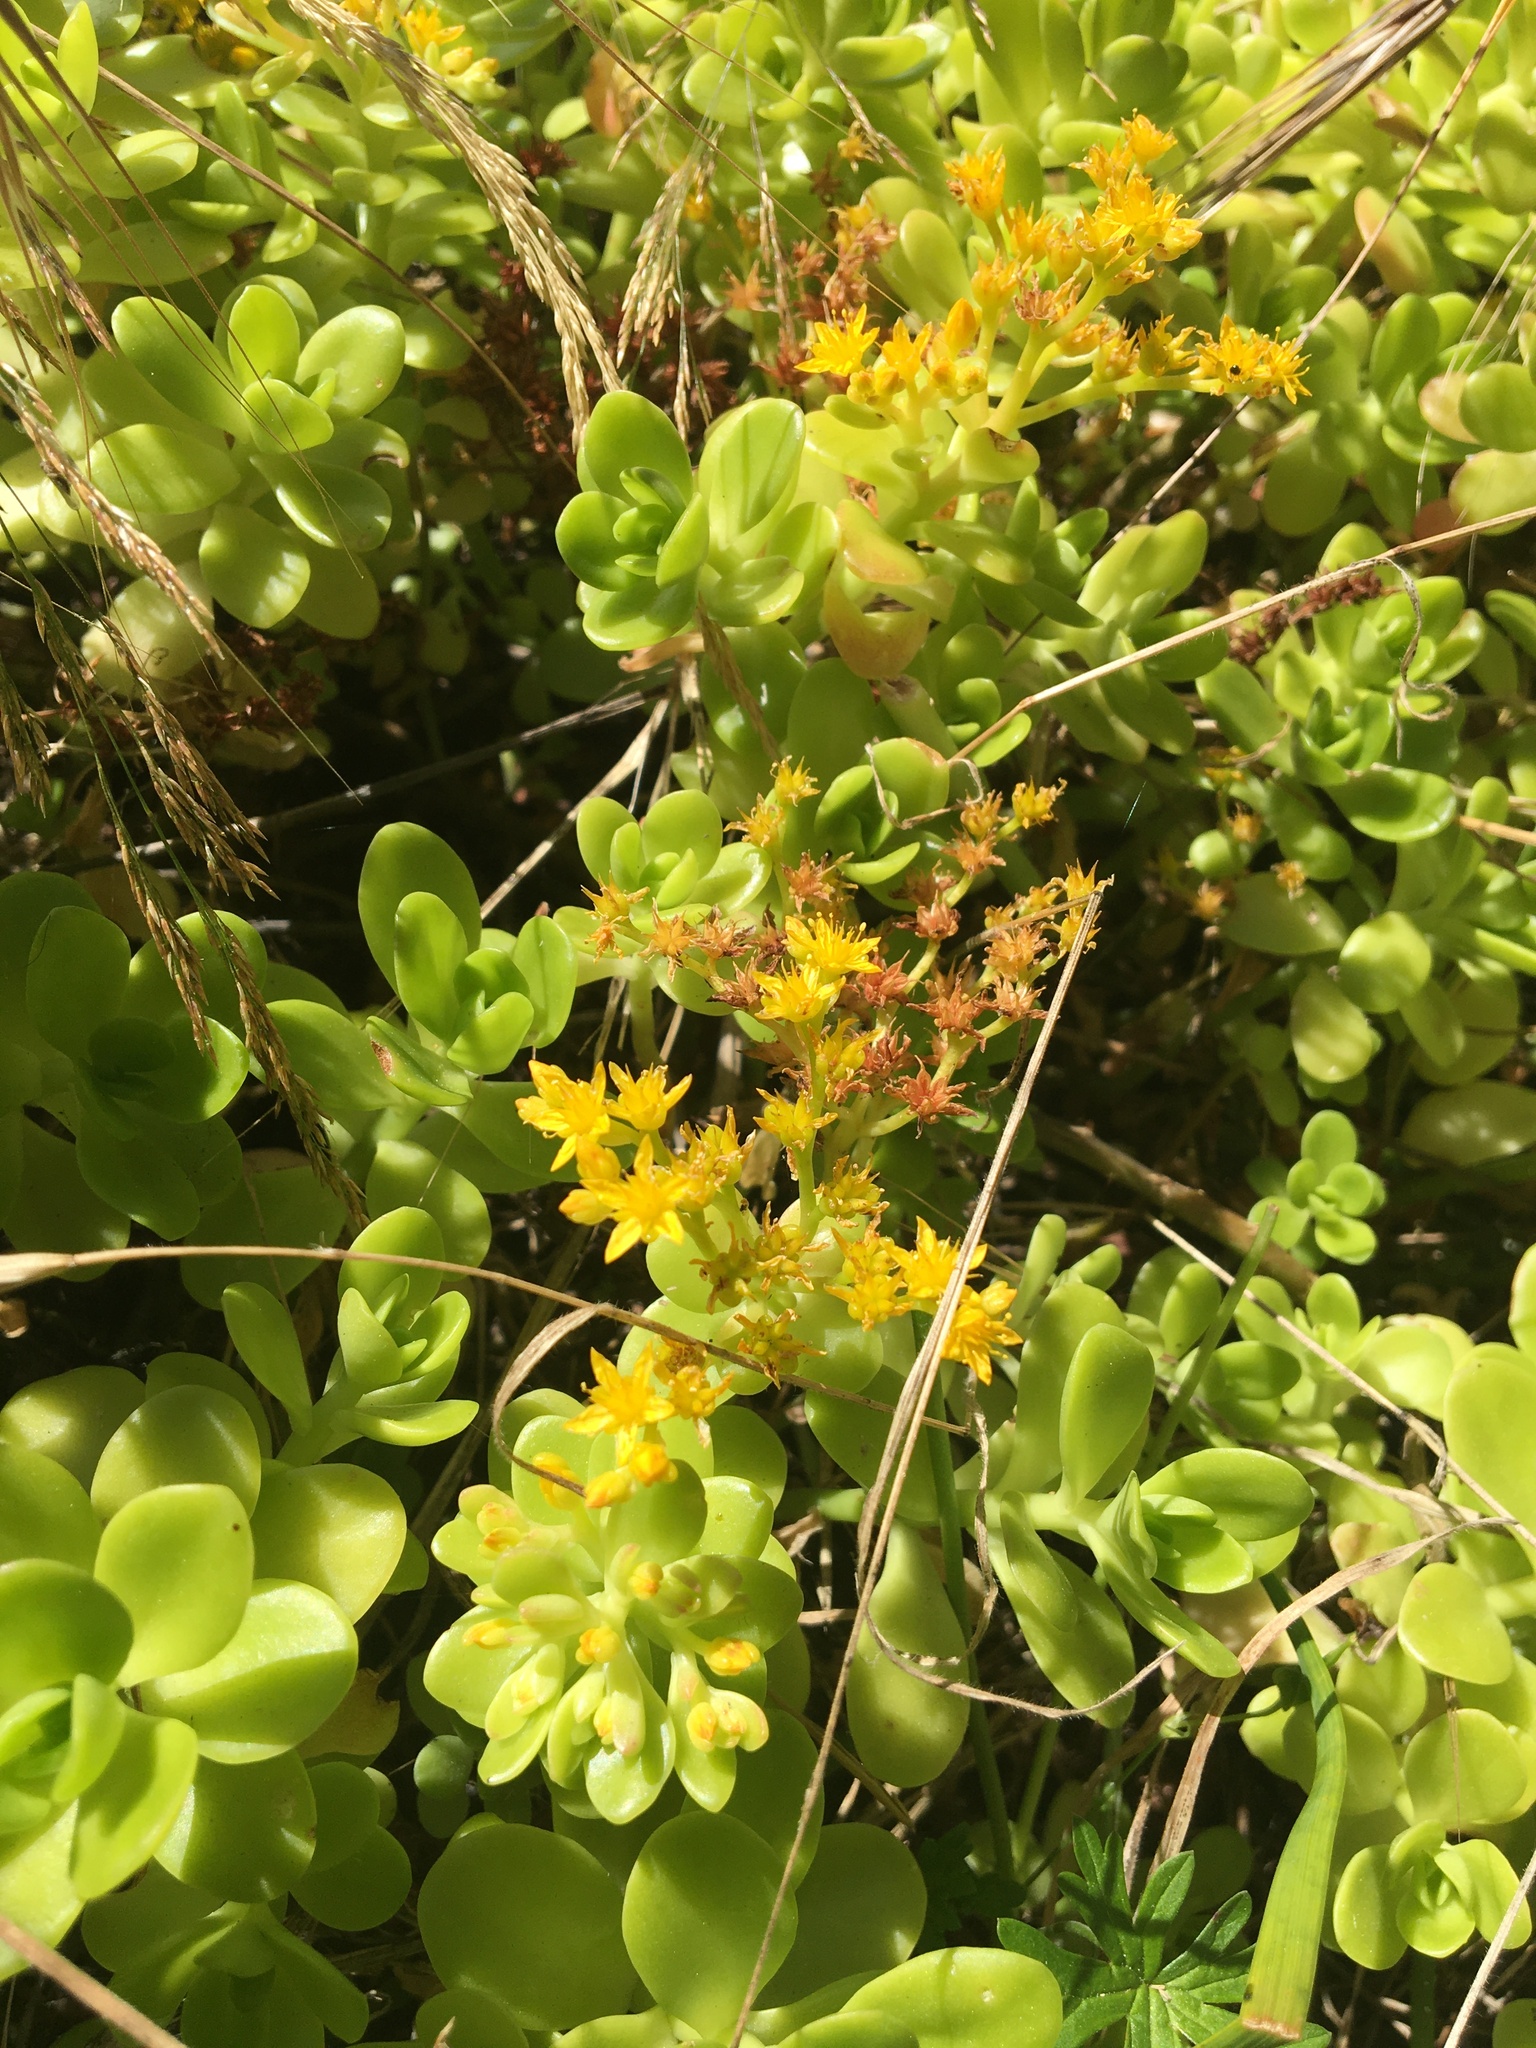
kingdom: Plantae
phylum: Tracheophyta
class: Magnoliopsida
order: Saxifragales
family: Crassulaceae
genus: Sedum
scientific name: Sedum kimnachii
